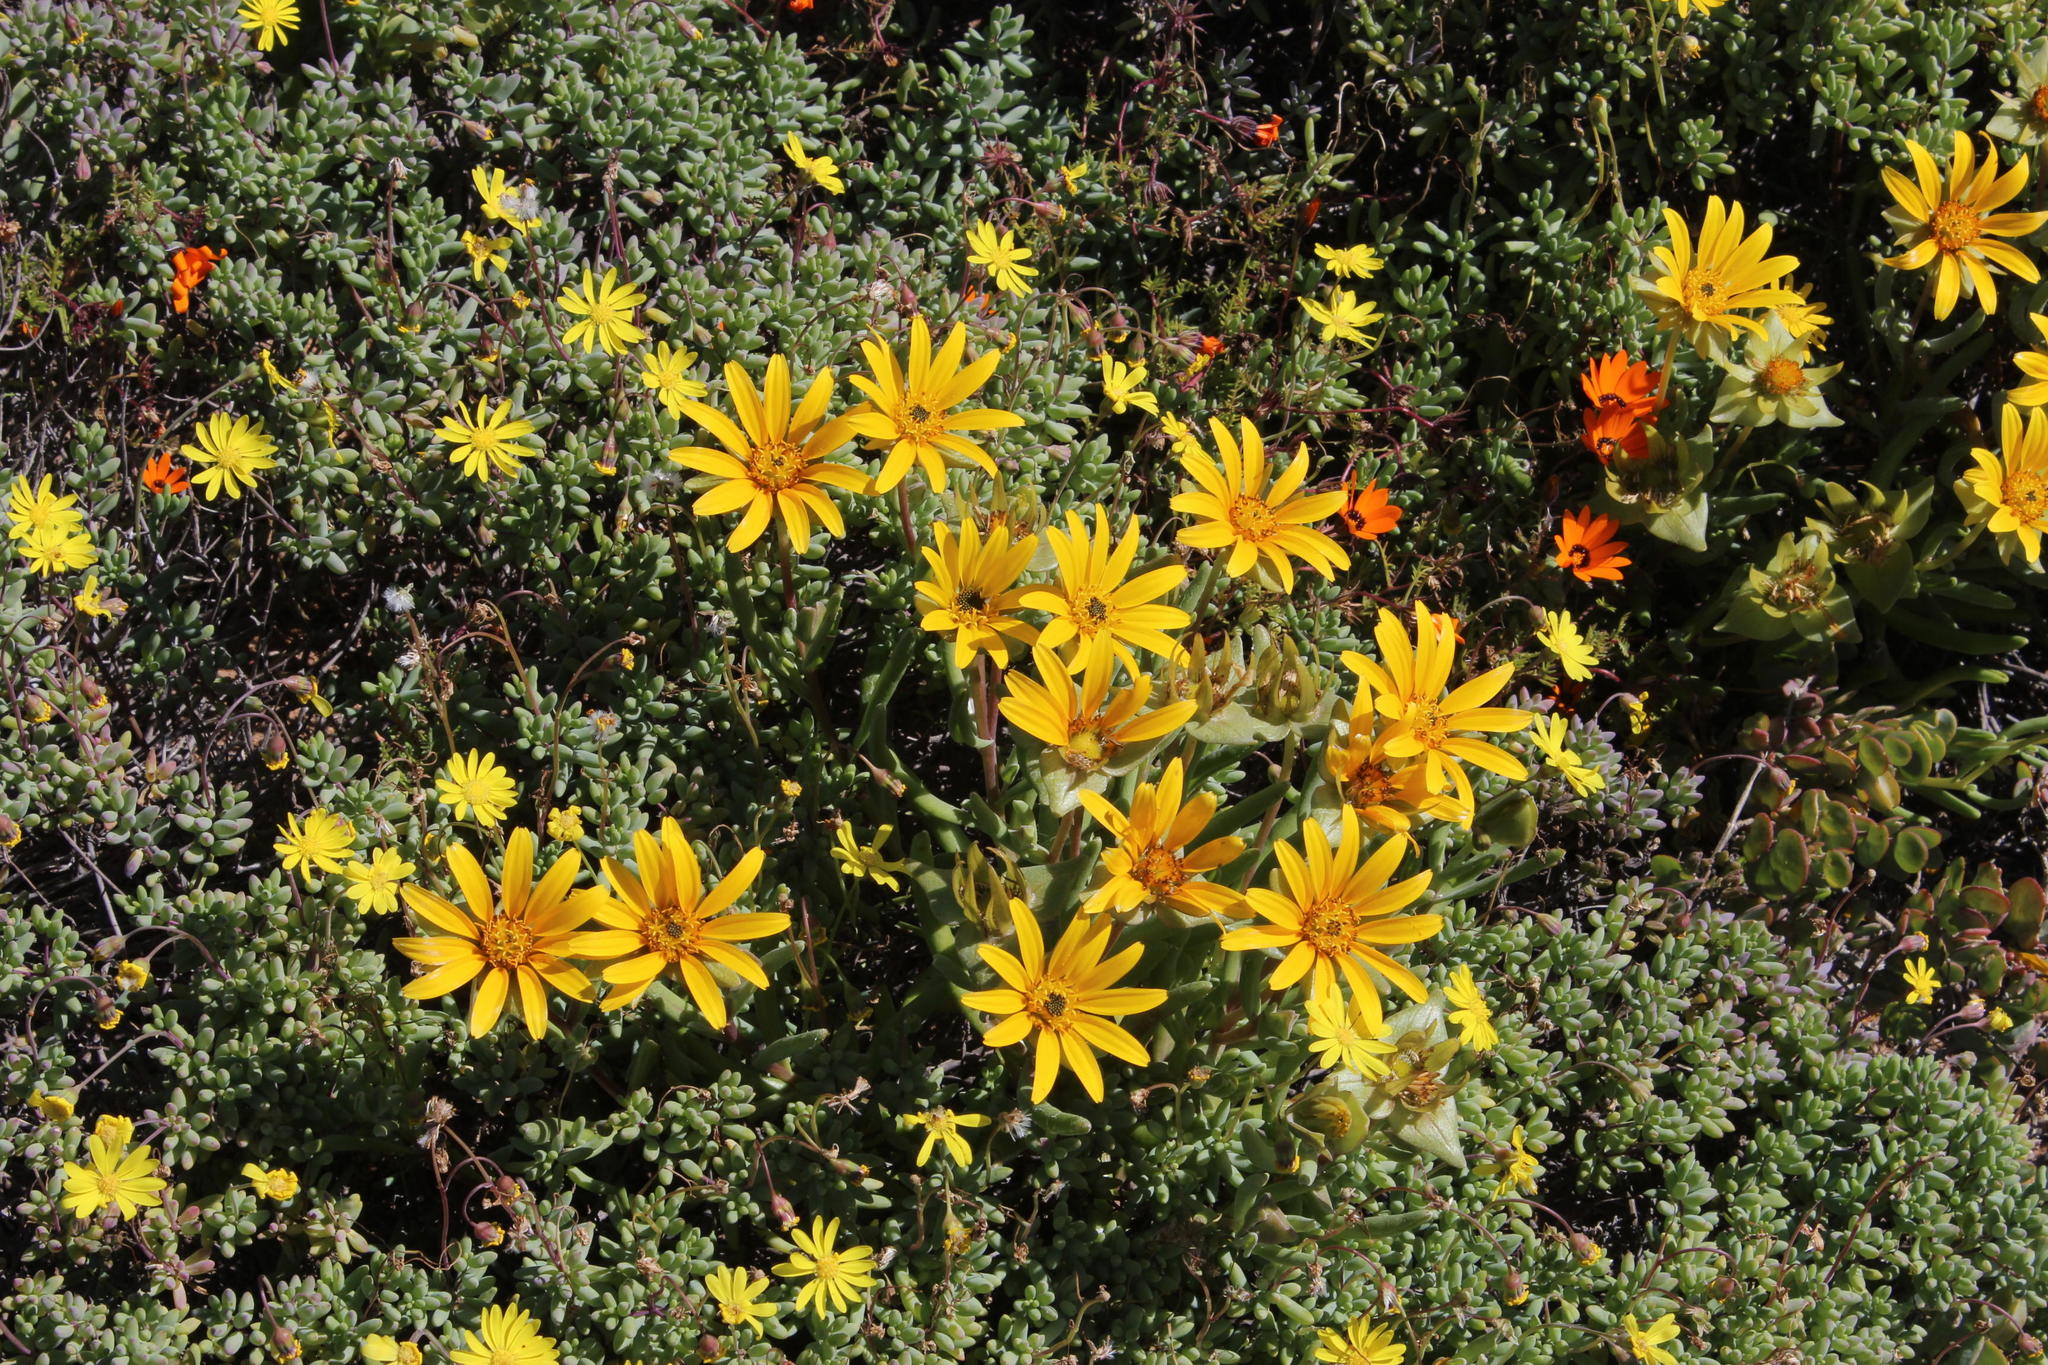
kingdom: Plantae
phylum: Tracheophyta
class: Magnoliopsida
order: Asterales
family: Asteraceae
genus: Didelta
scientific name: Didelta carnosa
